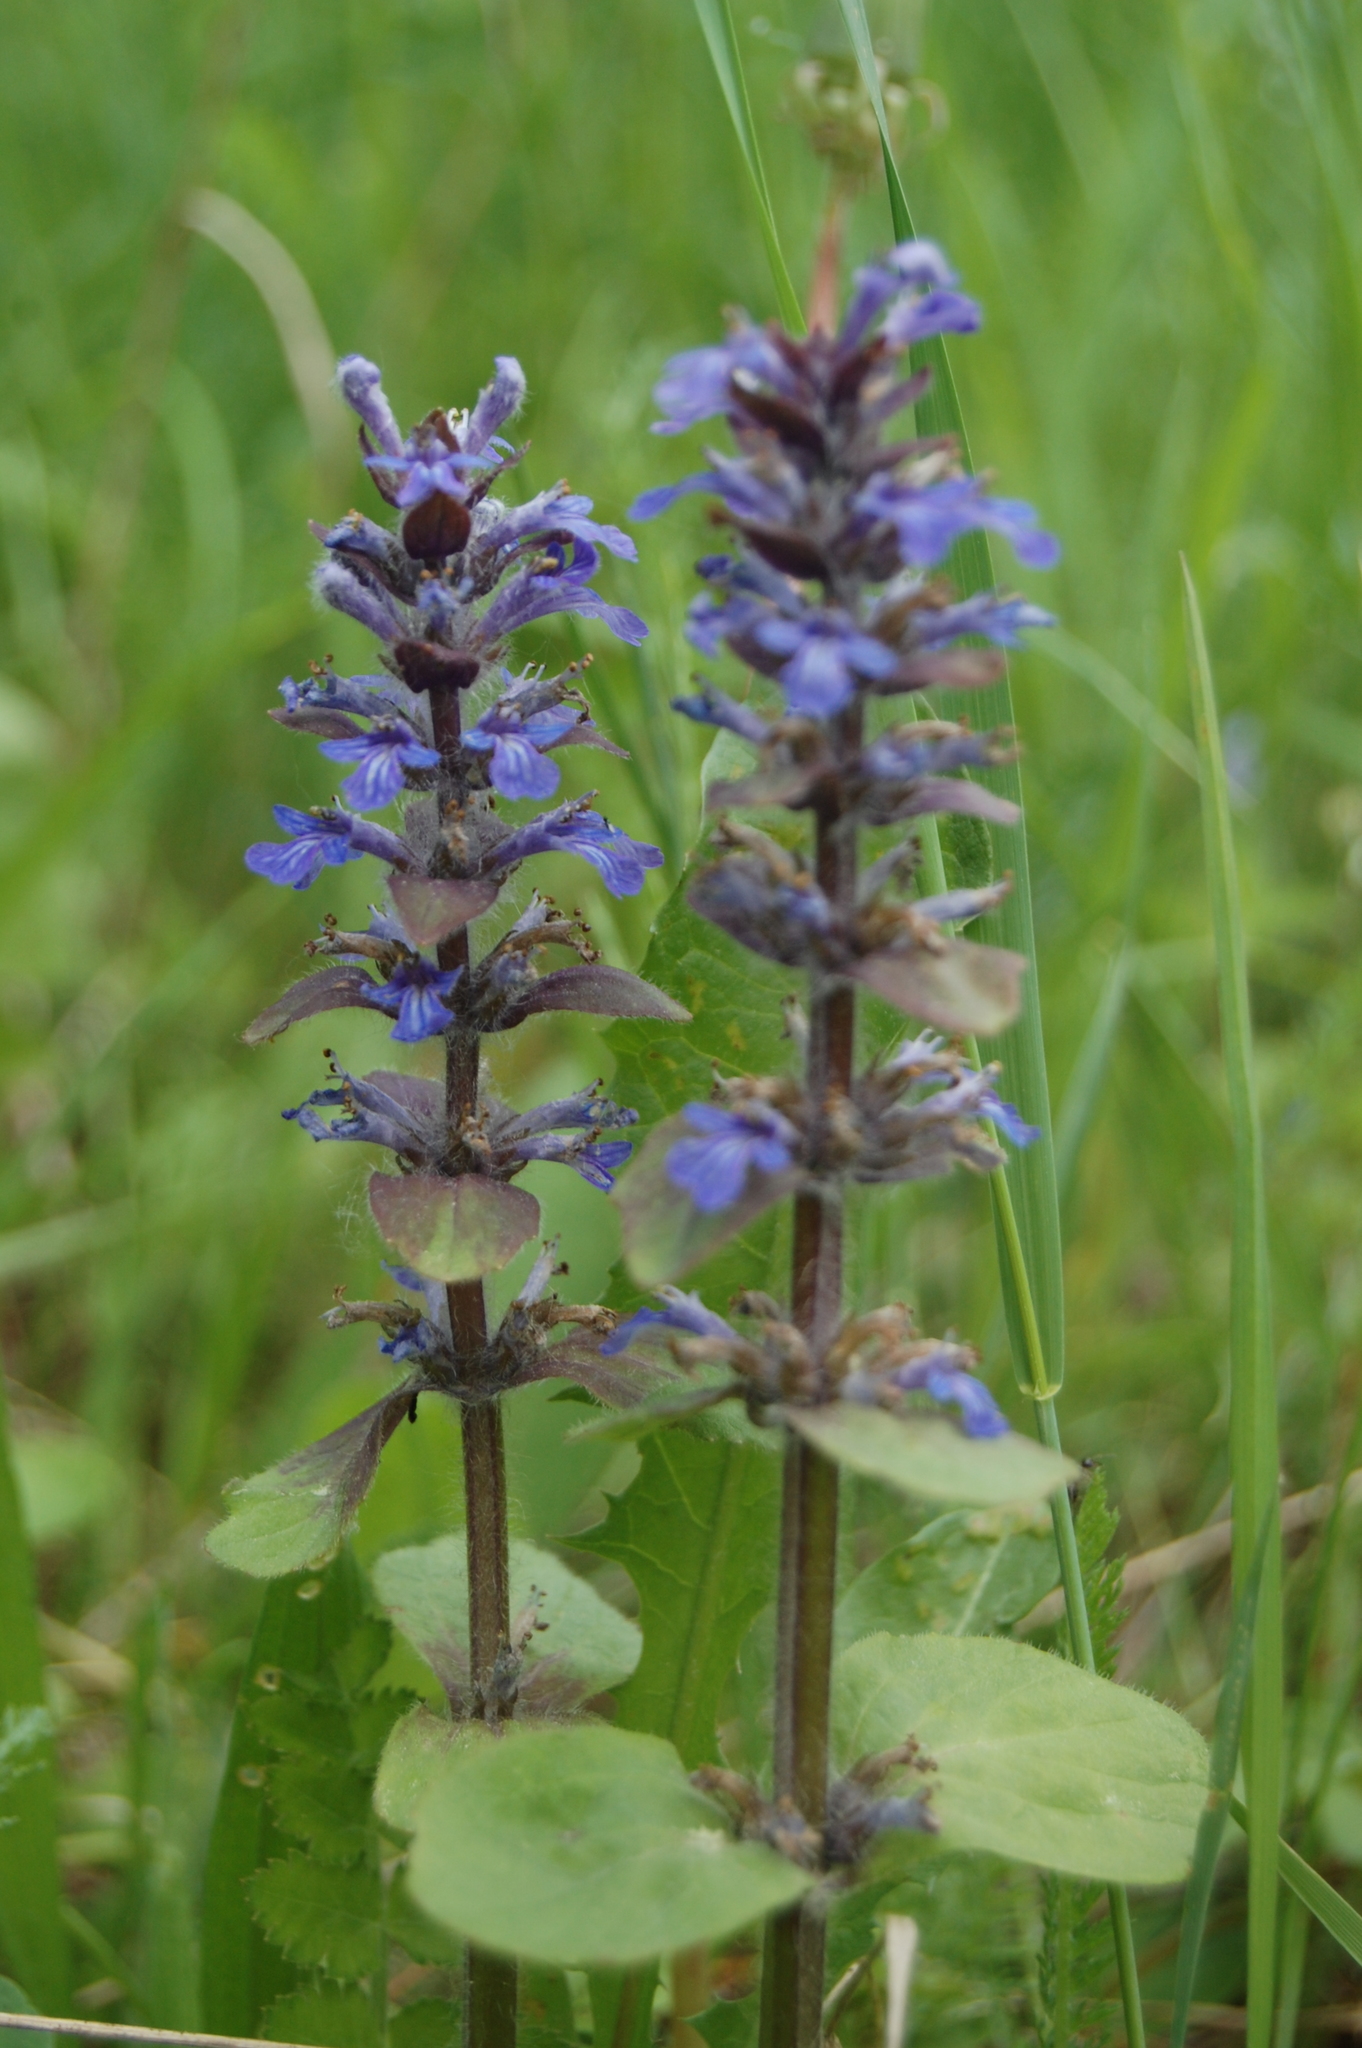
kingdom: Plantae
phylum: Tracheophyta
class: Magnoliopsida
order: Lamiales
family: Lamiaceae
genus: Ajuga
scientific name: Ajuga reptans
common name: Bugle
